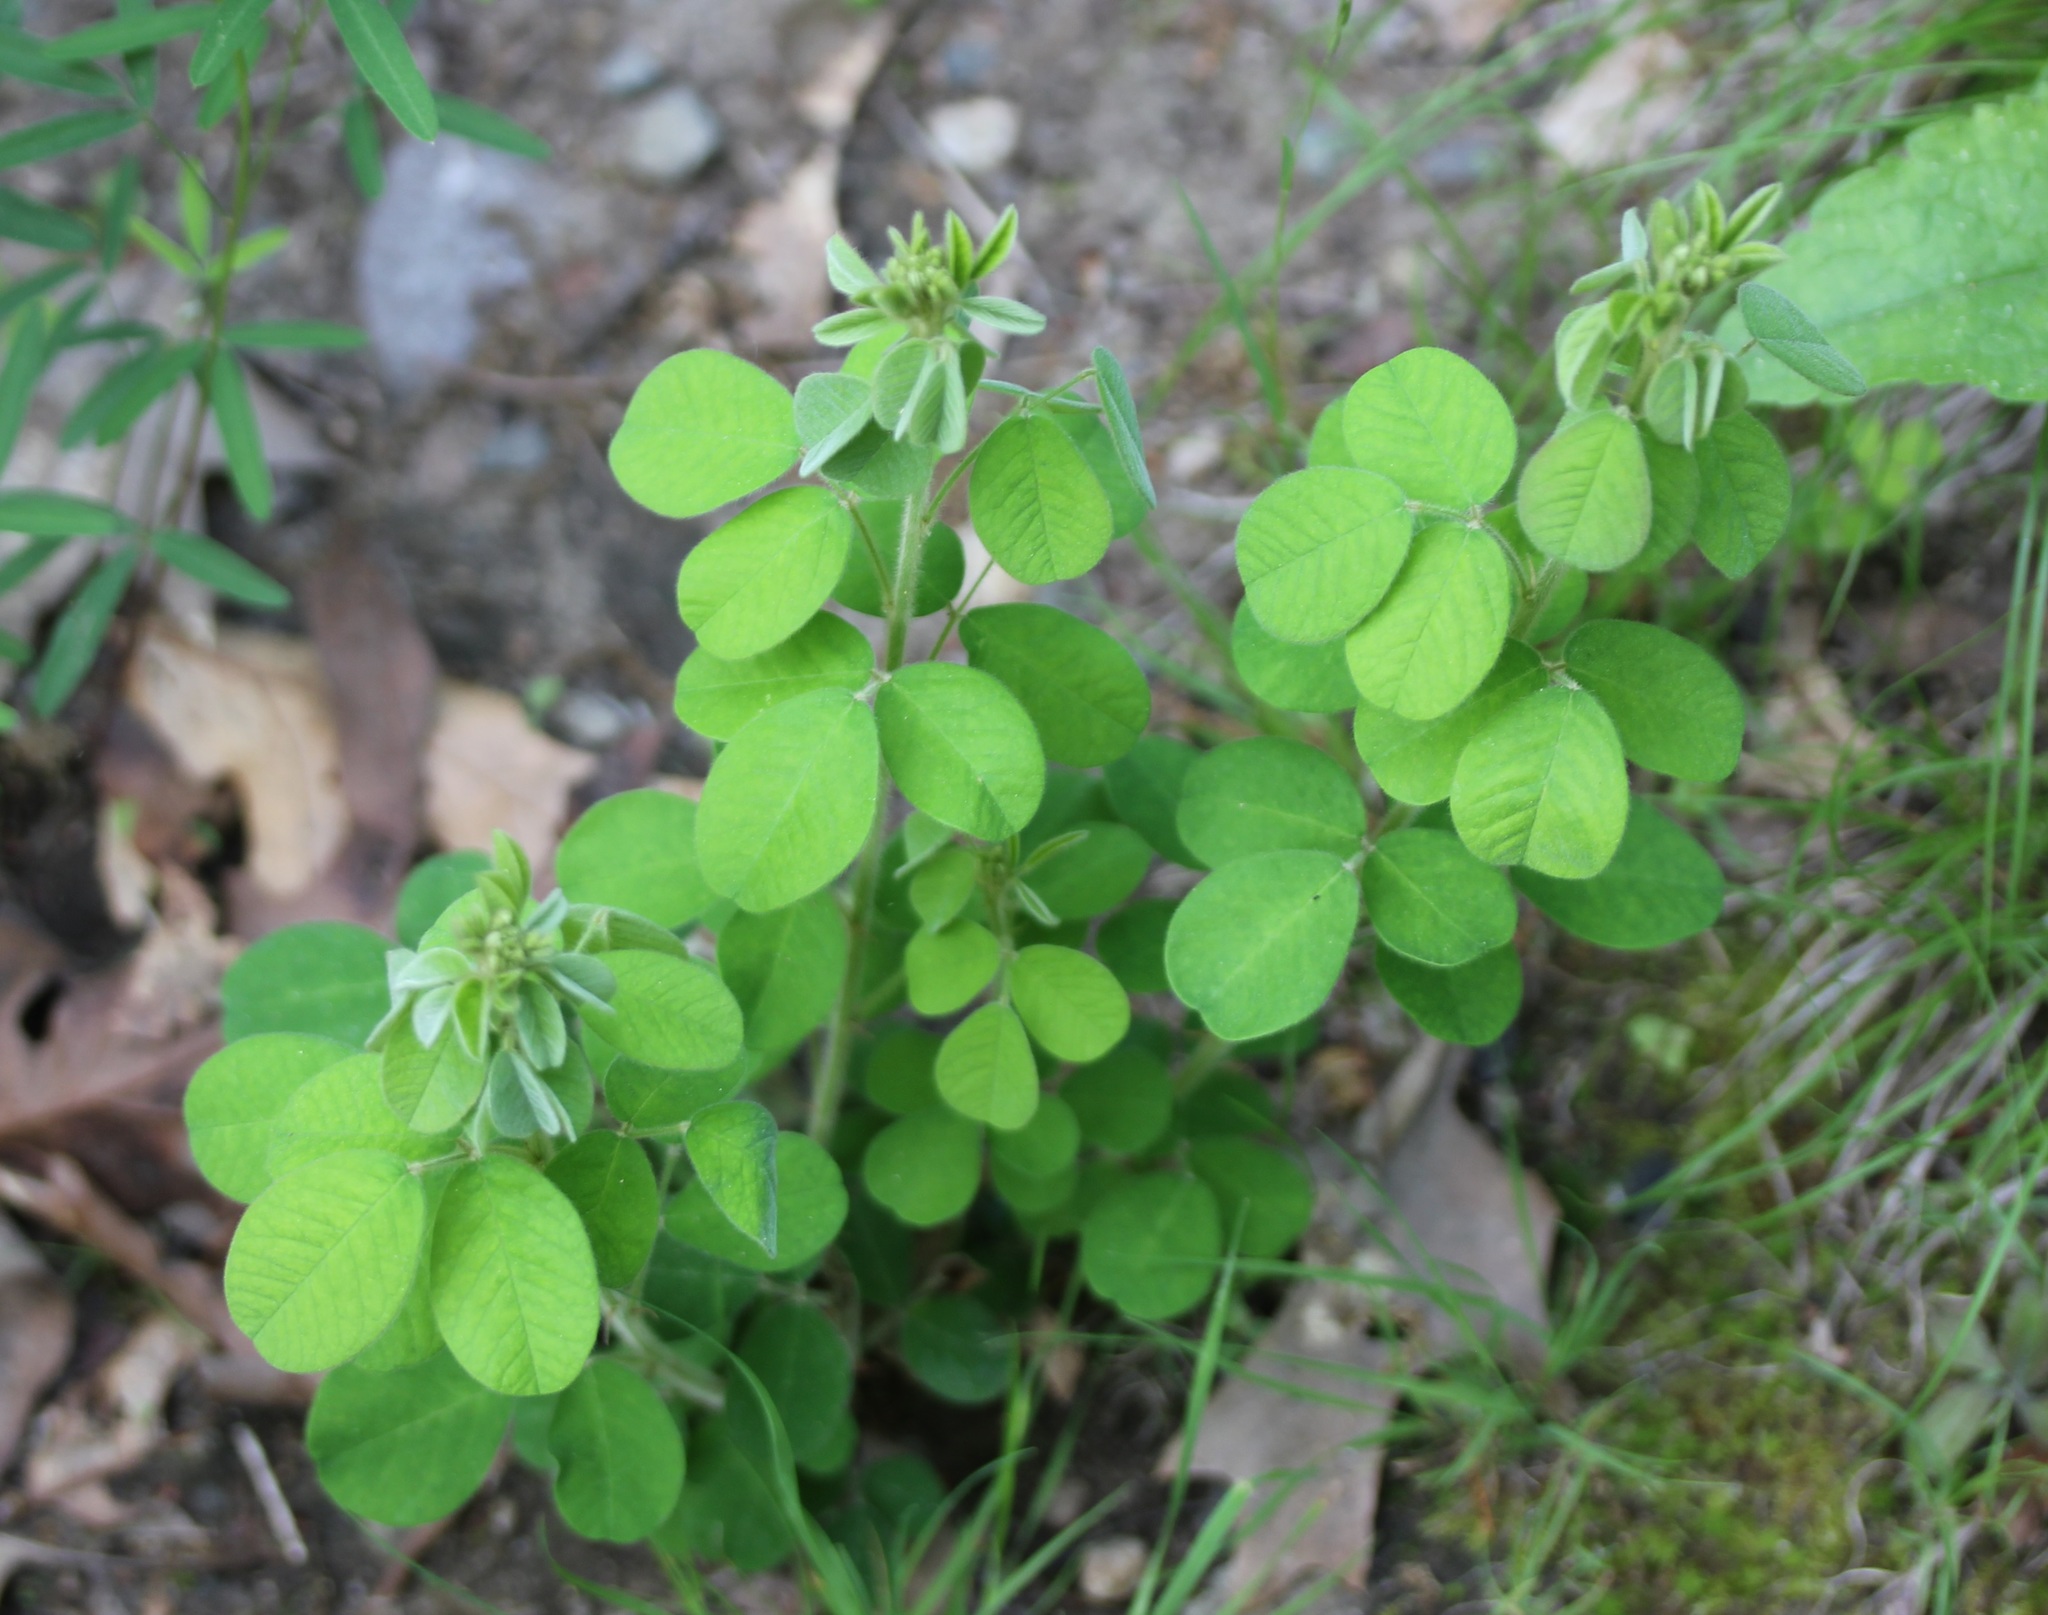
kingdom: Plantae
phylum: Tracheophyta
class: Magnoliopsida
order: Fabales
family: Fabaceae
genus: Lespedeza
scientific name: Lespedeza hirta
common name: Hairy lespedeza
